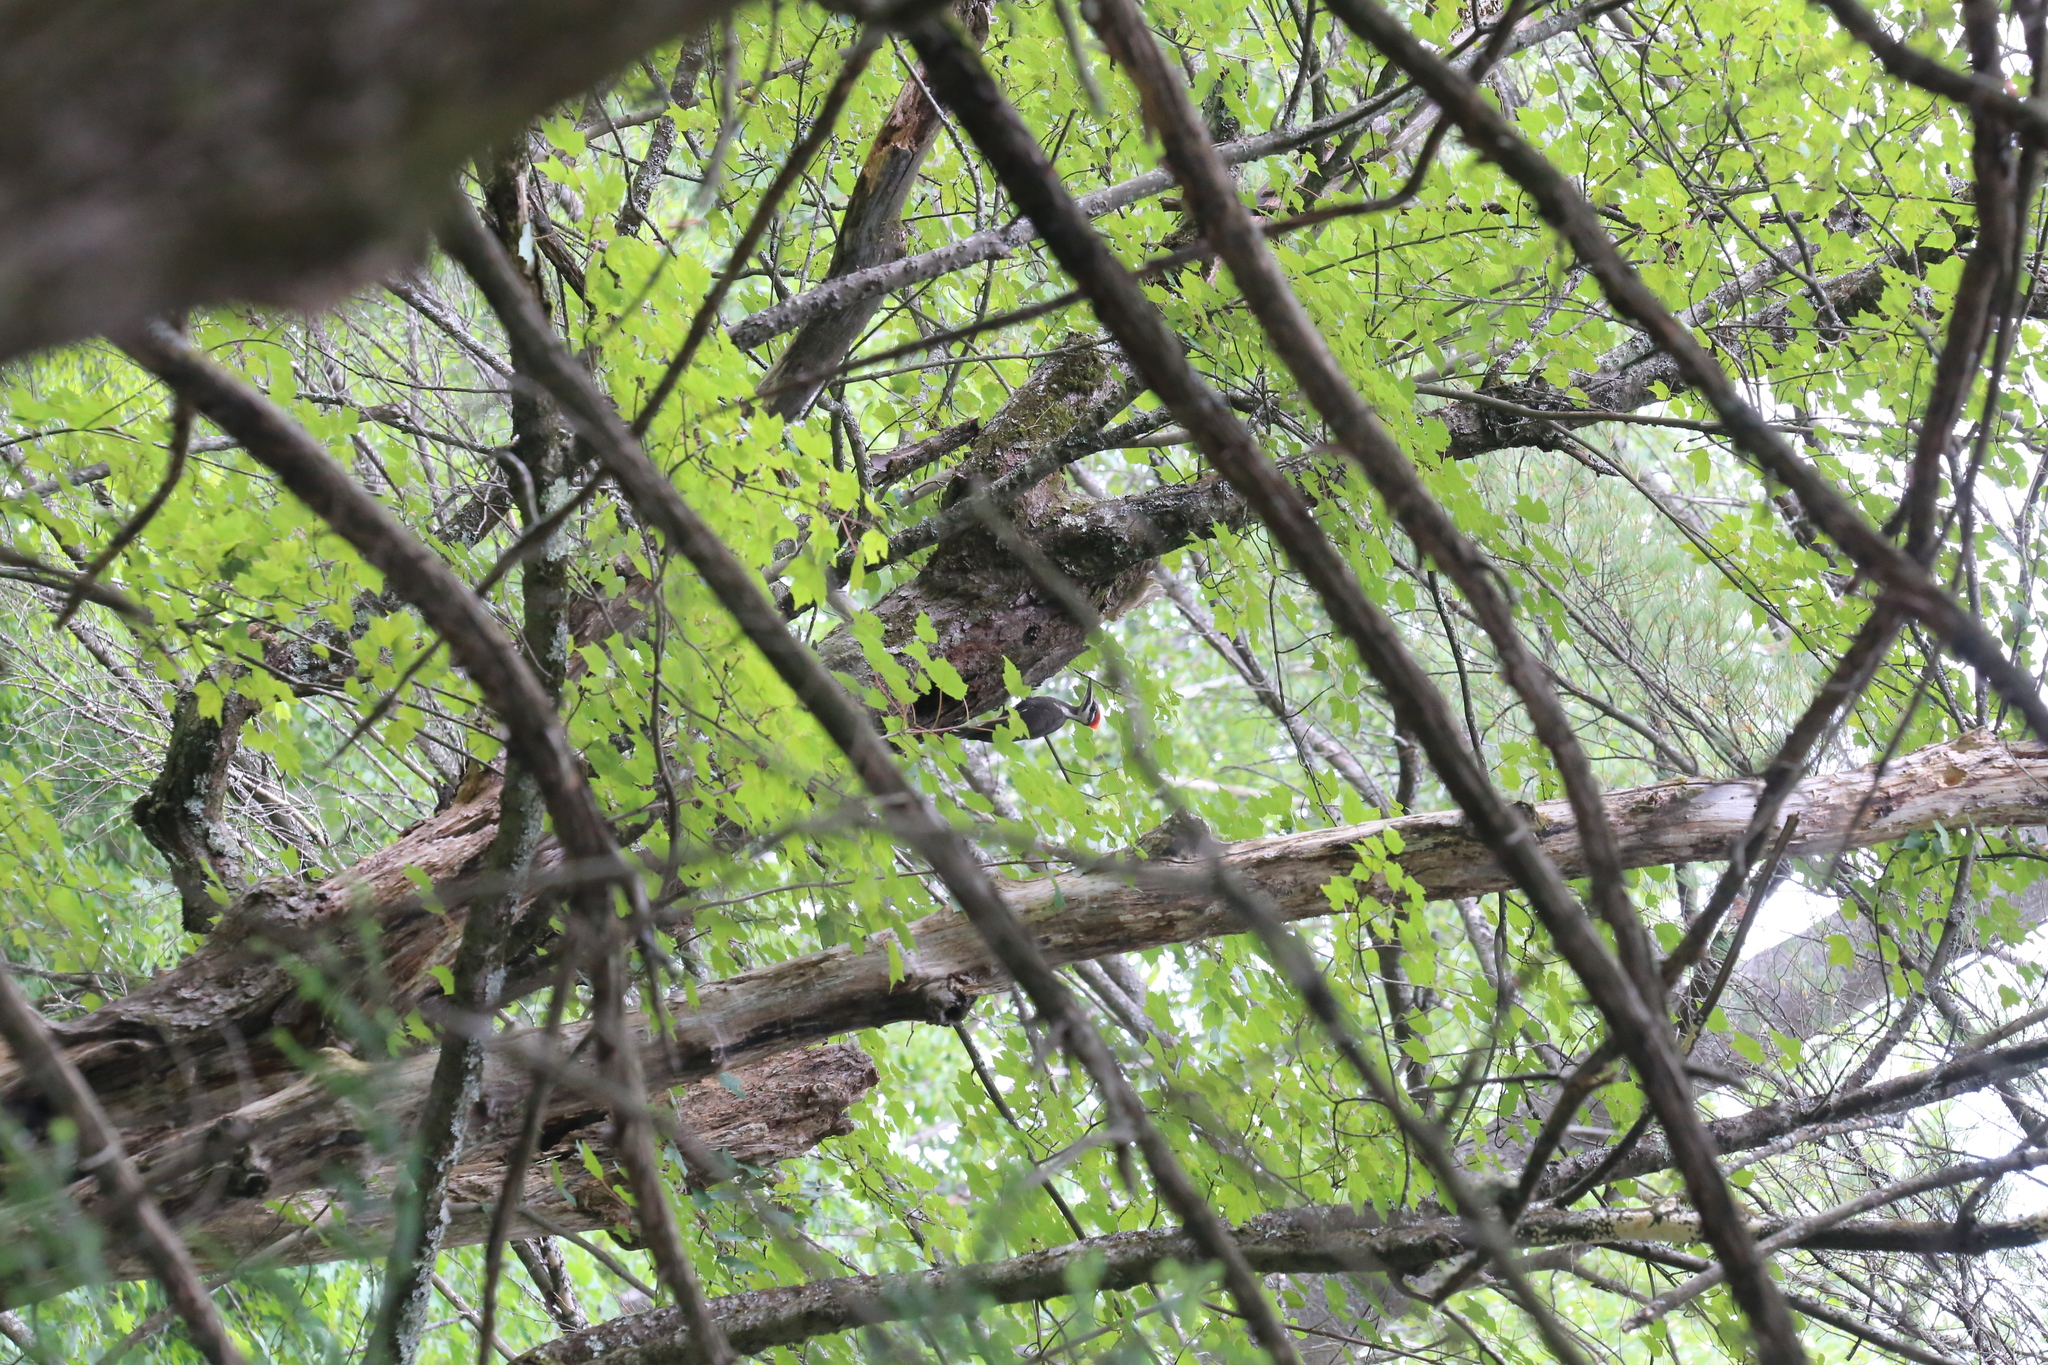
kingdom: Animalia
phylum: Chordata
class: Aves
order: Piciformes
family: Picidae
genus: Dryocopus
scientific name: Dryocopus pileatus
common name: Pileated woodpecker
